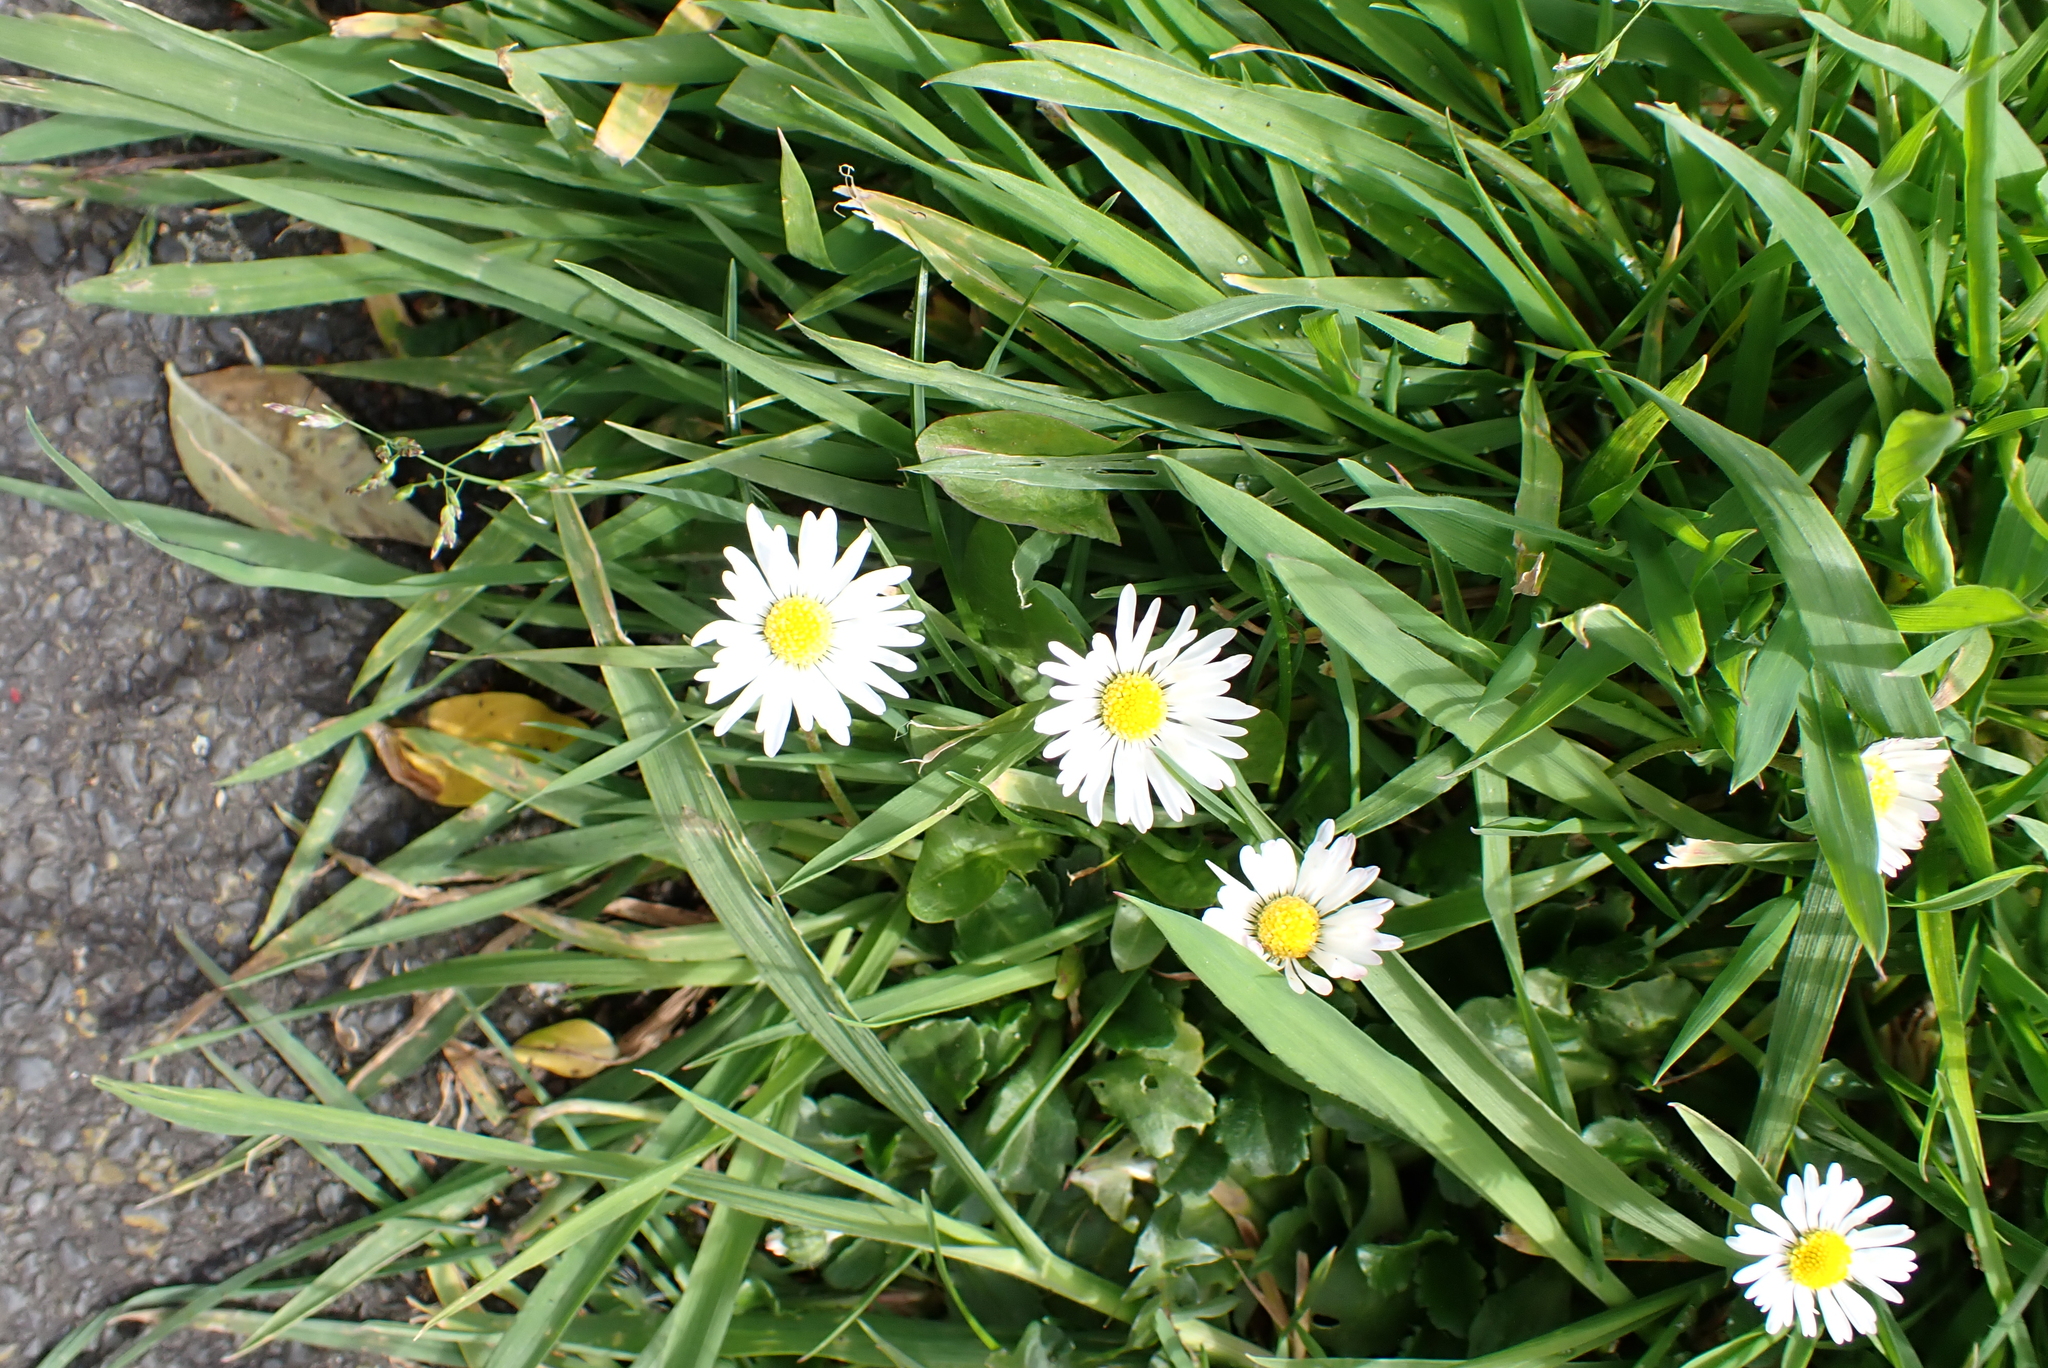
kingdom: Plantae
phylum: Tracheophyta
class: Magnoliopsida
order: Asterales
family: Asteraceae
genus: Bellis
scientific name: Bellis perennis
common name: Lawndaisy
